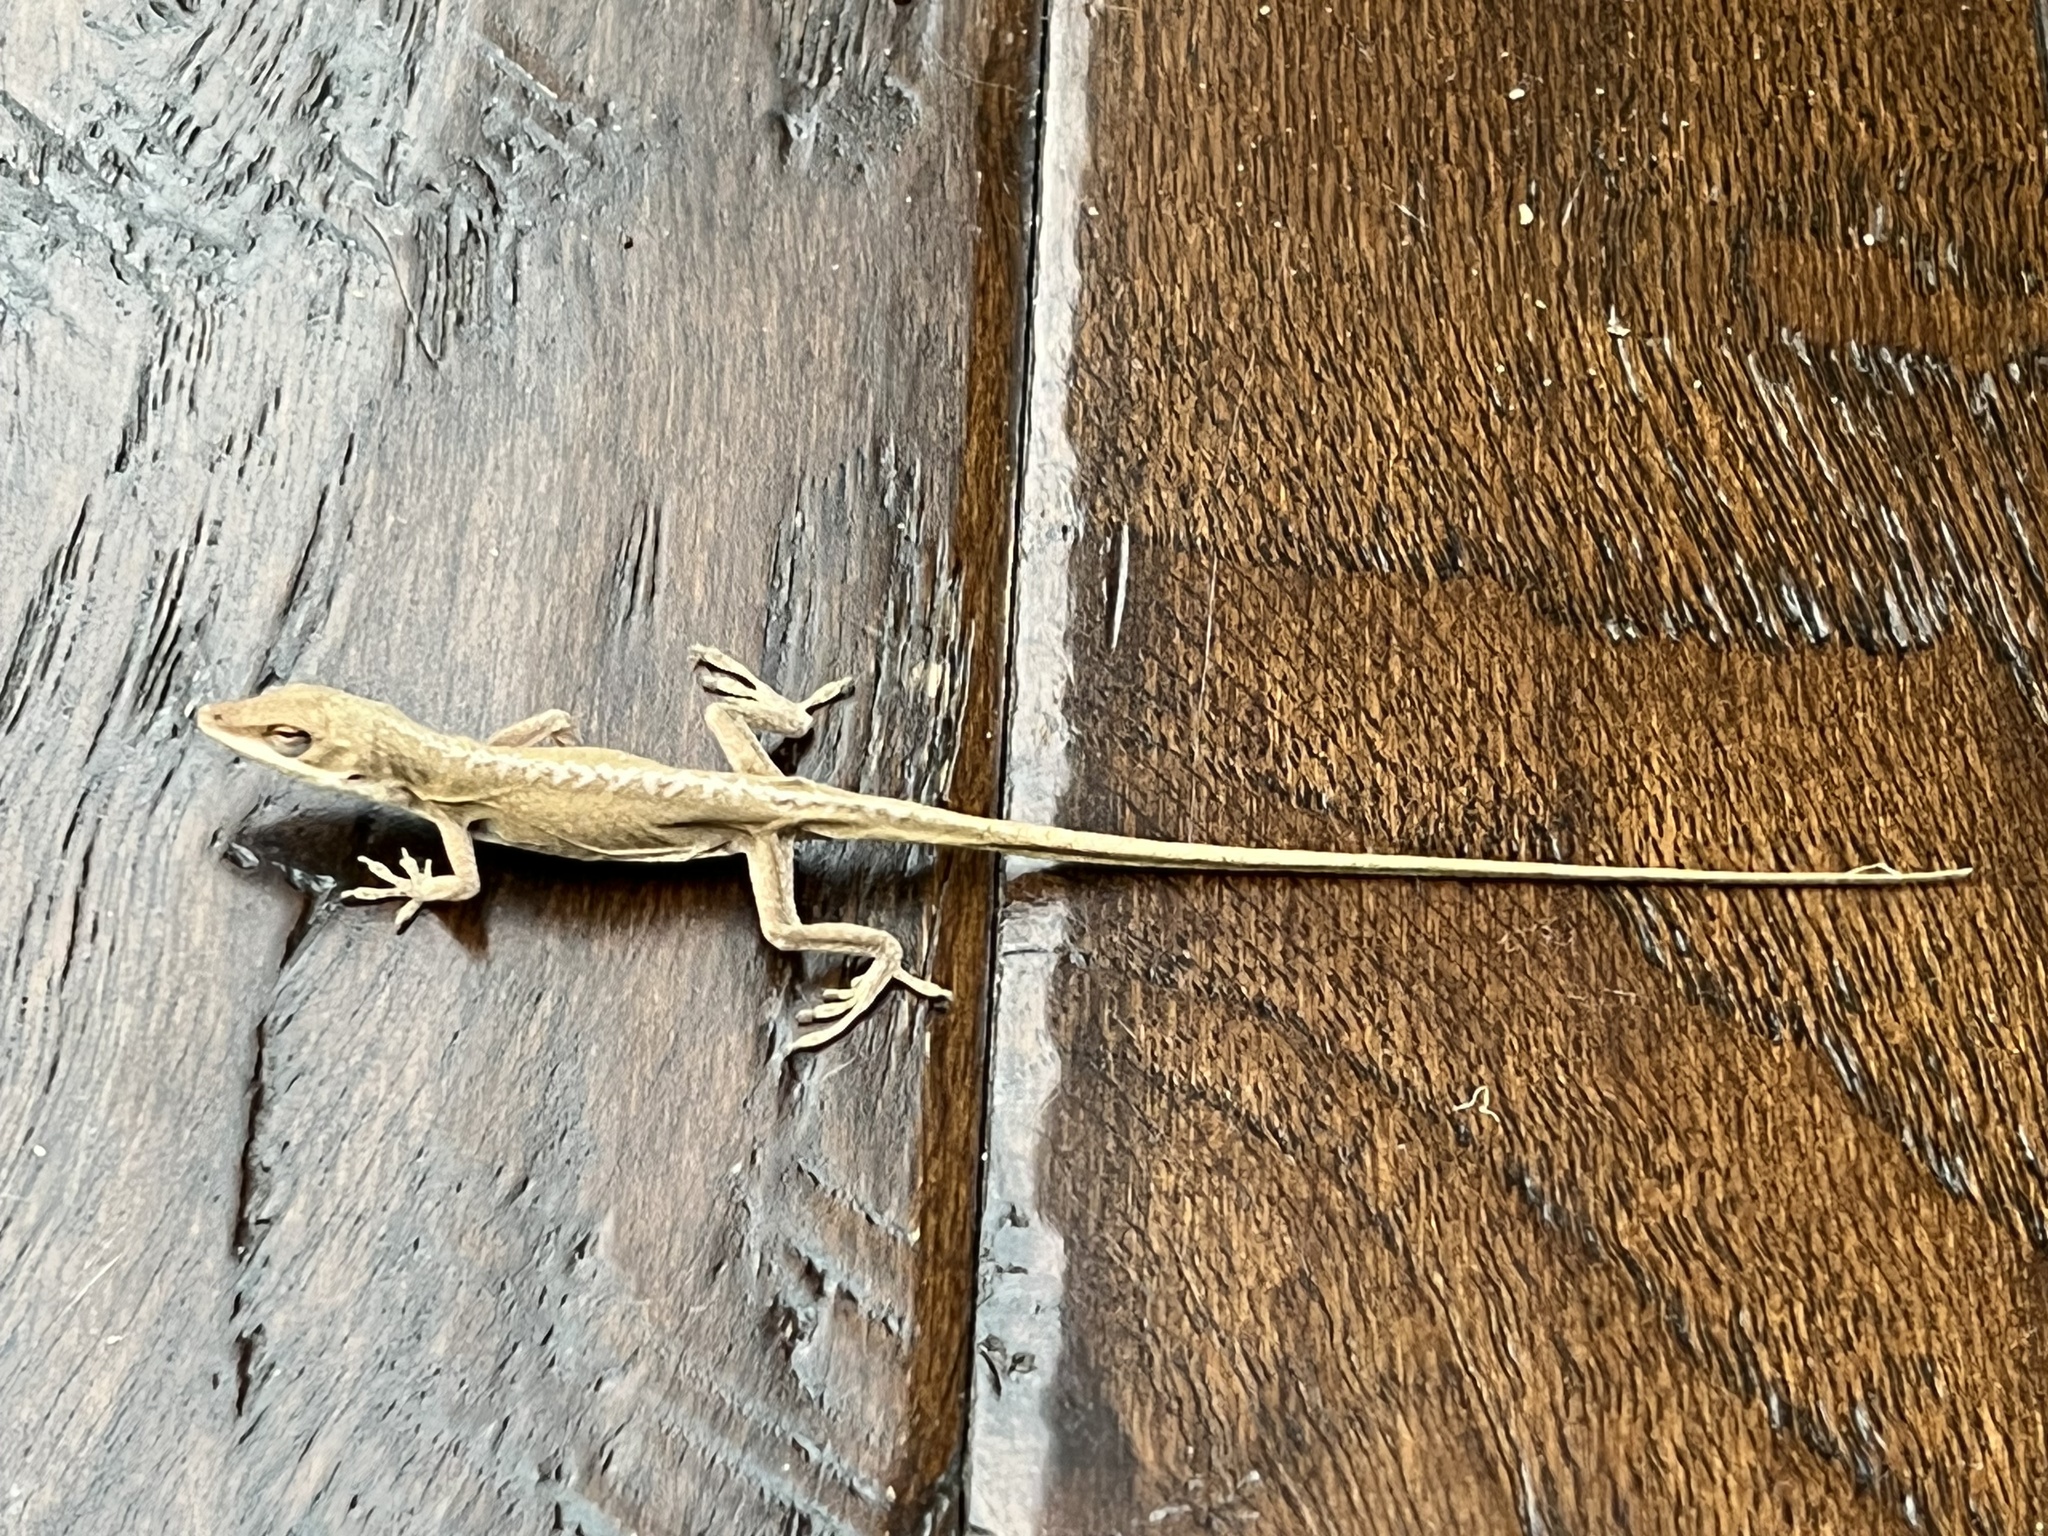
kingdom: Animalia
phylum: Chordata
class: Squamata
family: Dactyloidae
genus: Anolis
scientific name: Anolis carolinensis
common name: Green anole
